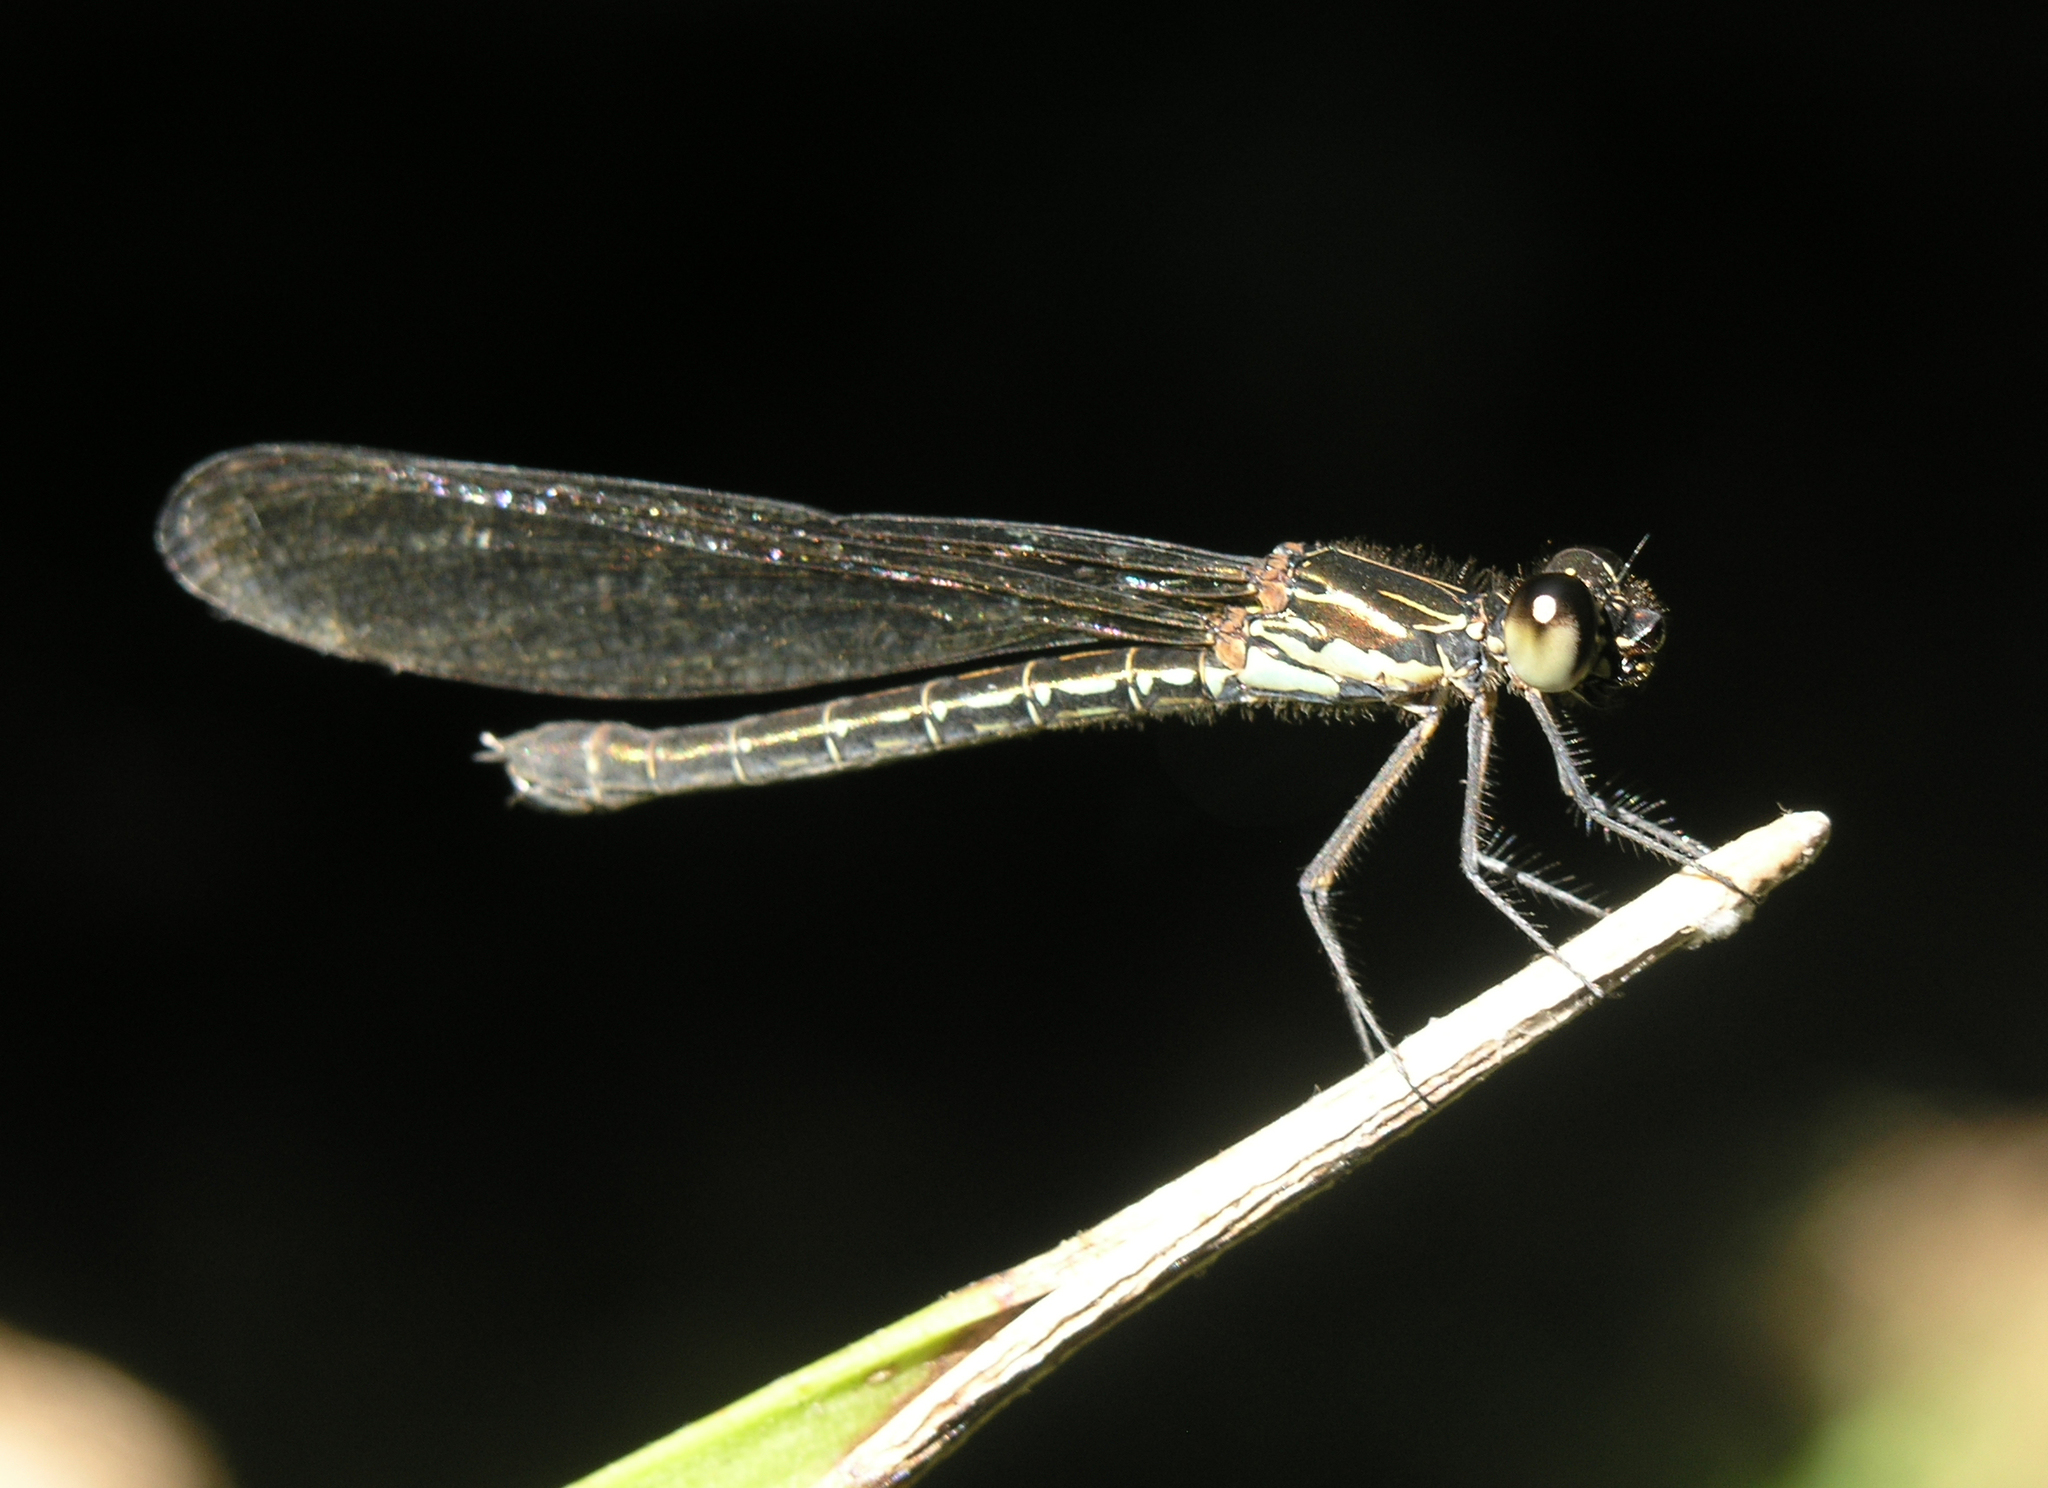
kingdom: Animalia
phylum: Arthropoda
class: Insecta
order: Odonata
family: Chlorocyphidae
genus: Heliocypha
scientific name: Heliocypha biforata
